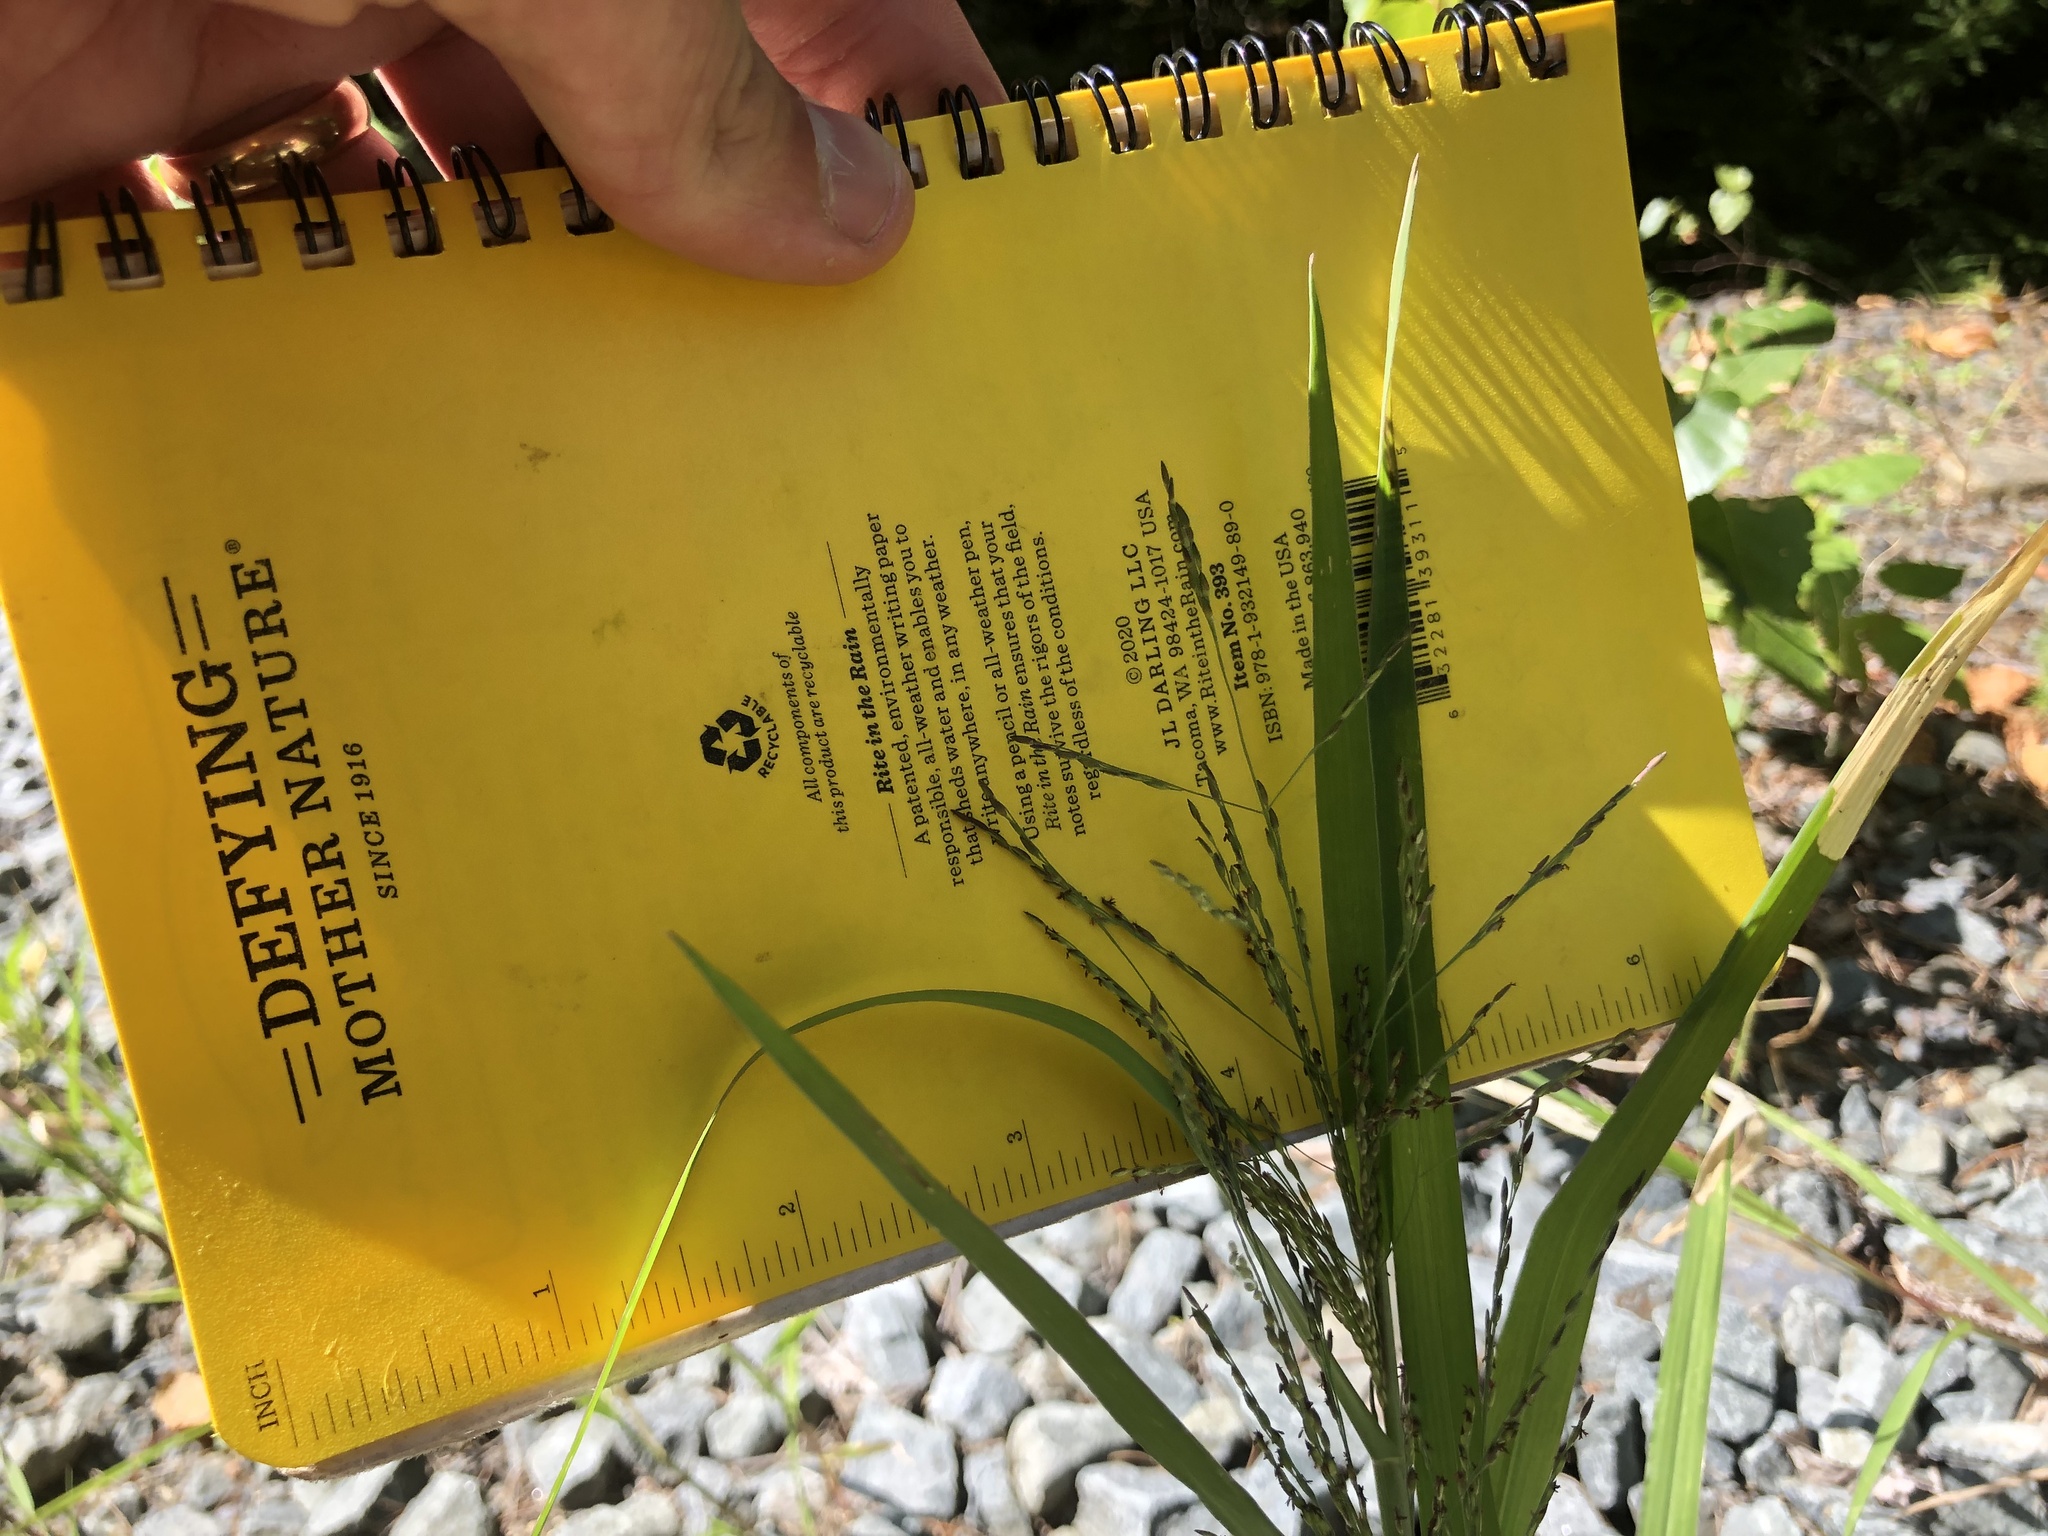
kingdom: Plantae
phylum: Tracheophyta
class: Liliopsida
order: Poales
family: Poaceae
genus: Panicum
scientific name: Panicum dichotomiflorum
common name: Autumn millet
